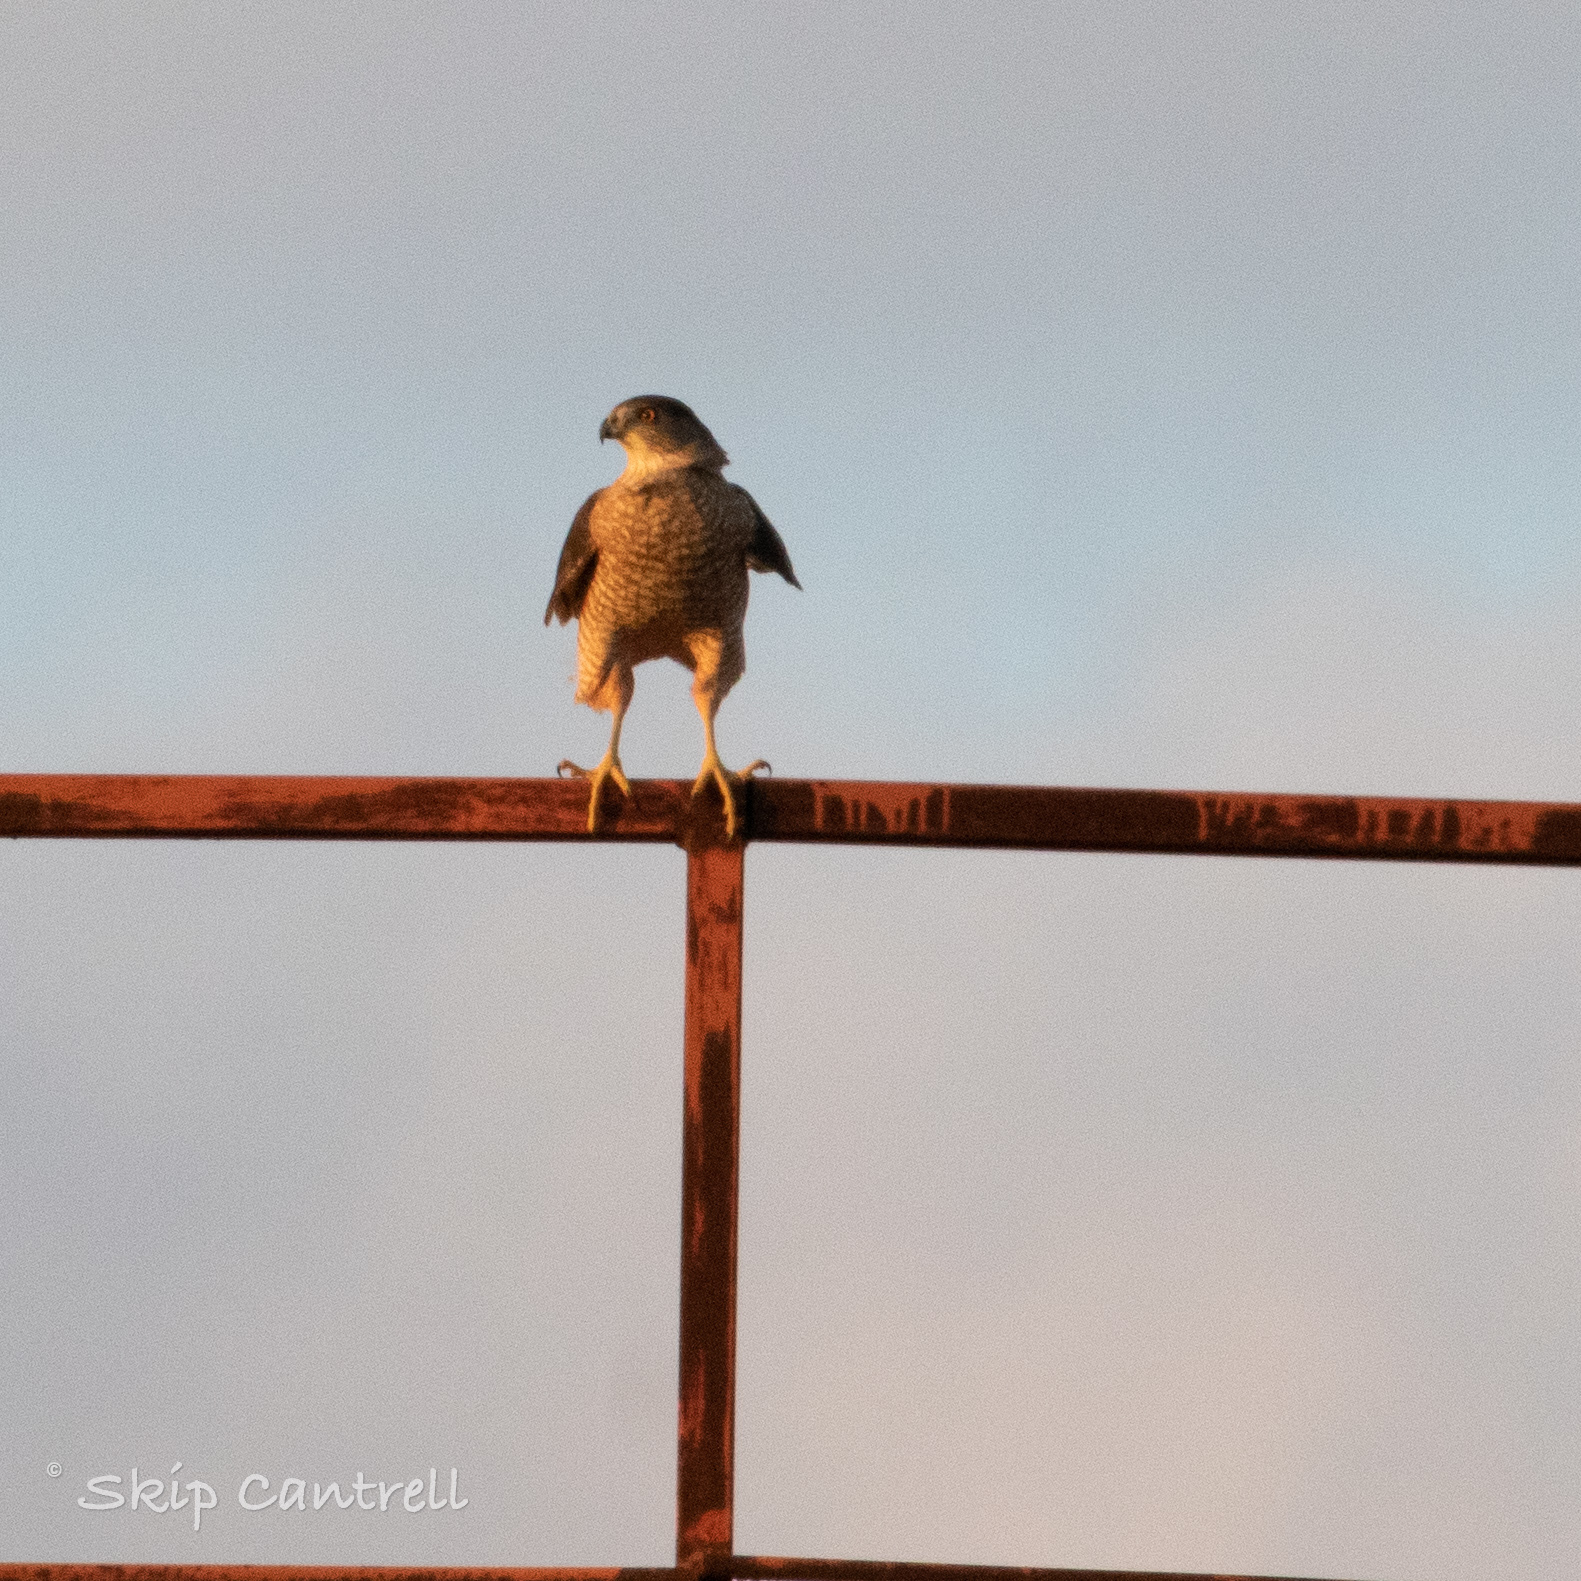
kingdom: Animalia
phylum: Chordata
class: Aves
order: Accipitriformes
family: Accipitridae
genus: Accipiter
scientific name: Accipiter cooperii
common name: Cooper's hawk
